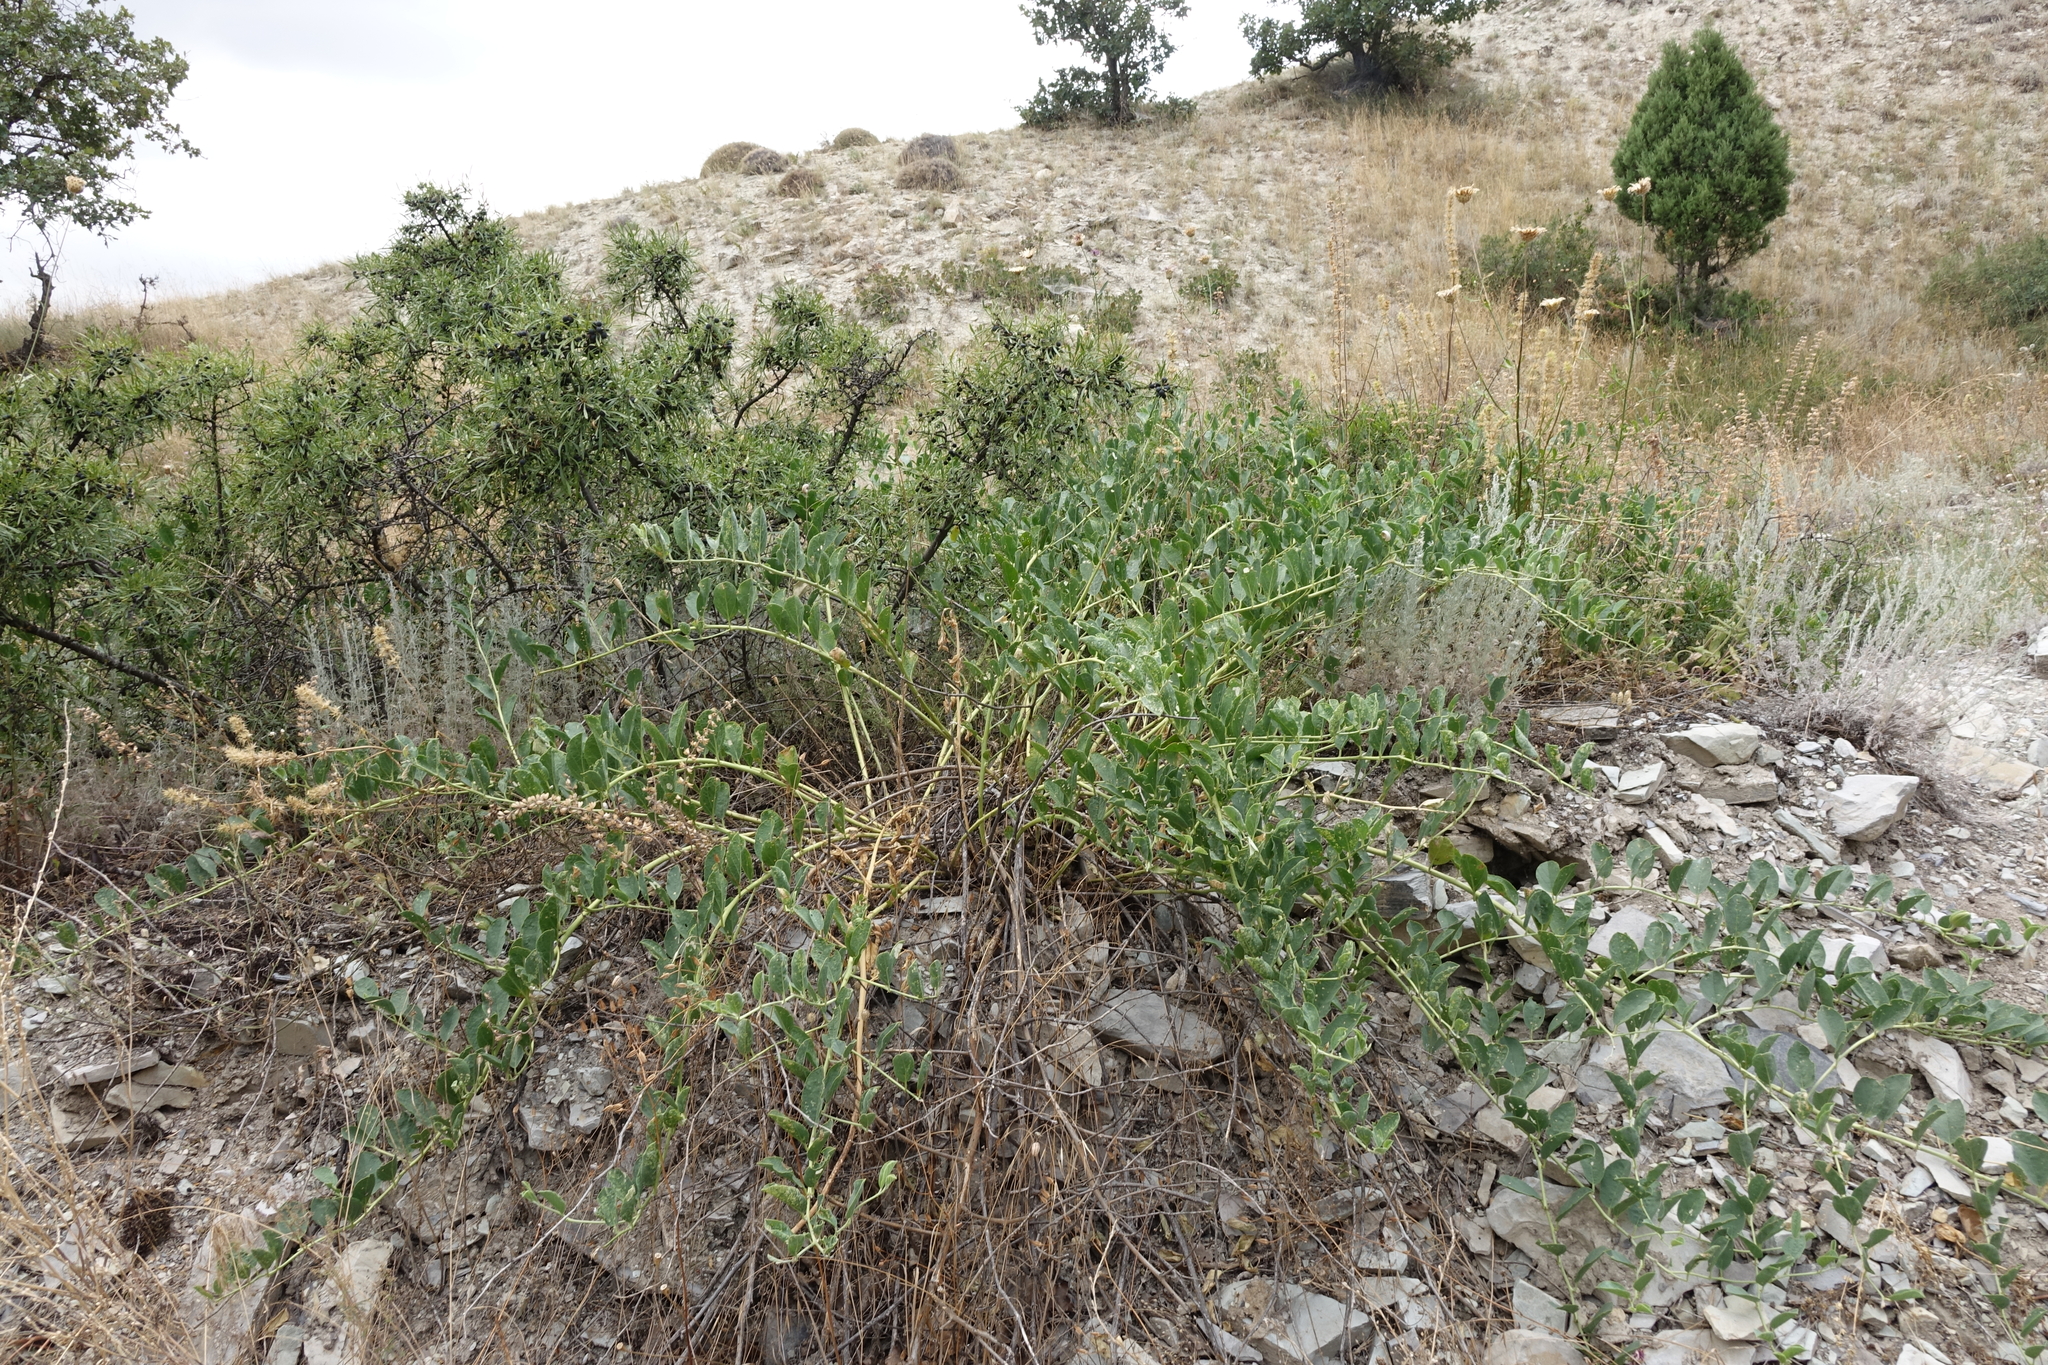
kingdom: Plantae
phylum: Tracheophyta
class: Magnoliopsida
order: Brassicales
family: Capparaceae
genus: Capparis
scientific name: Capparis spinosa
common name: Caper
